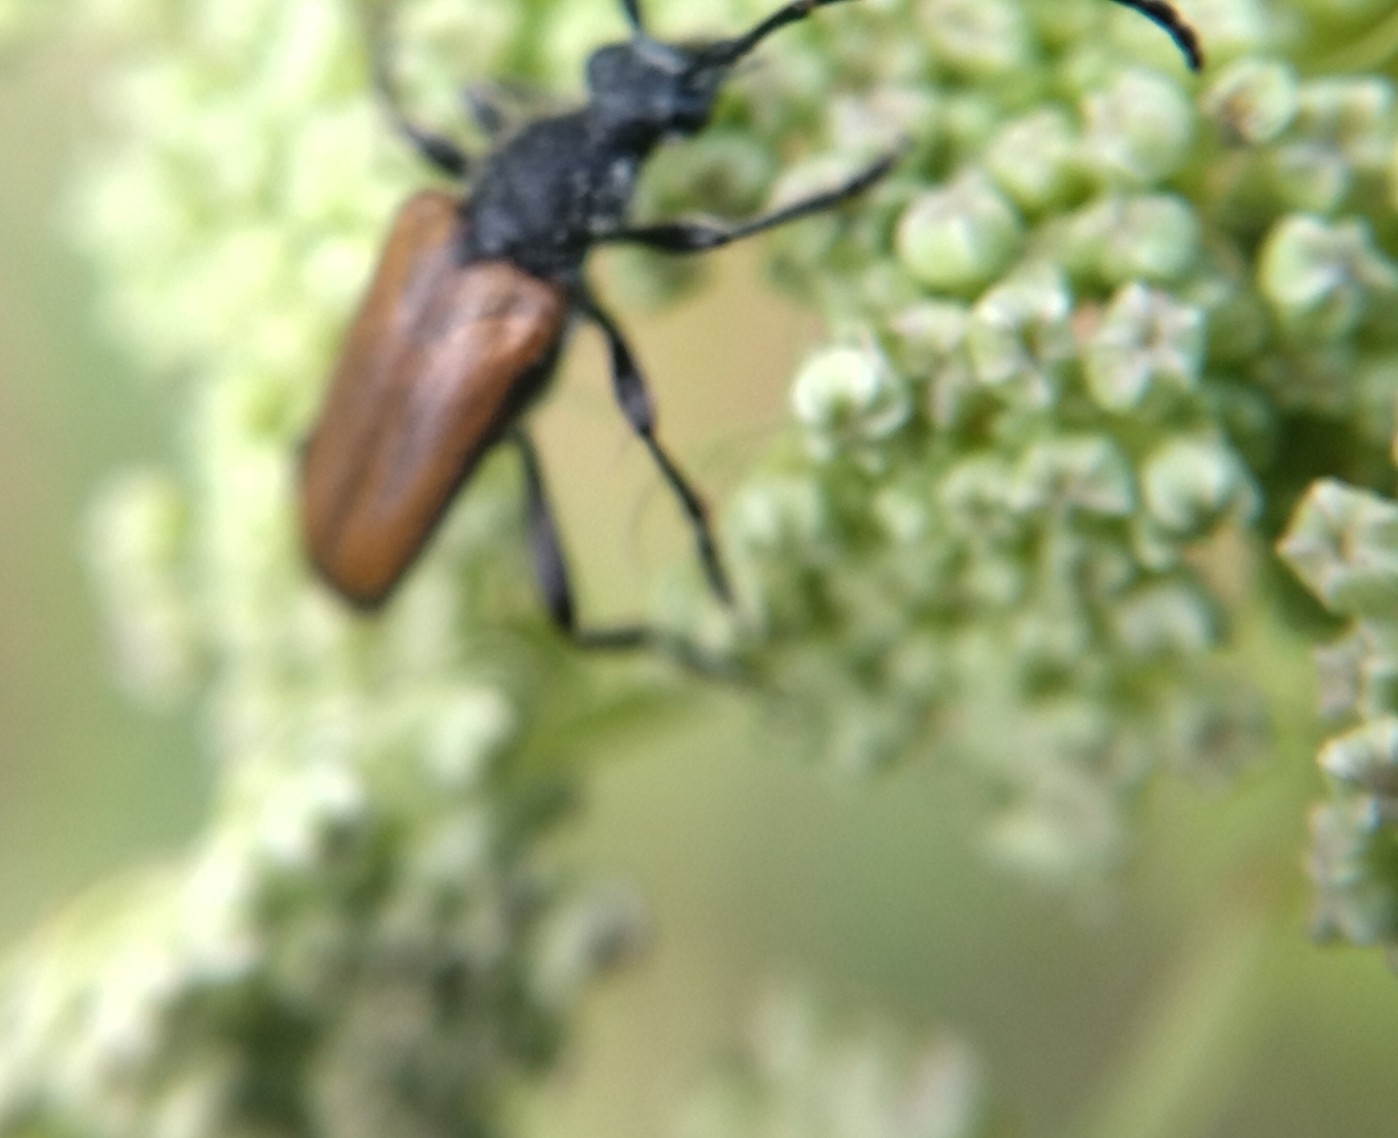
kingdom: Animalia
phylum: Arthropoda
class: Insecta
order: Coleoptera
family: Cerambycidae
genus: Paracorymbia
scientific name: Paracorymbia maculicornis
